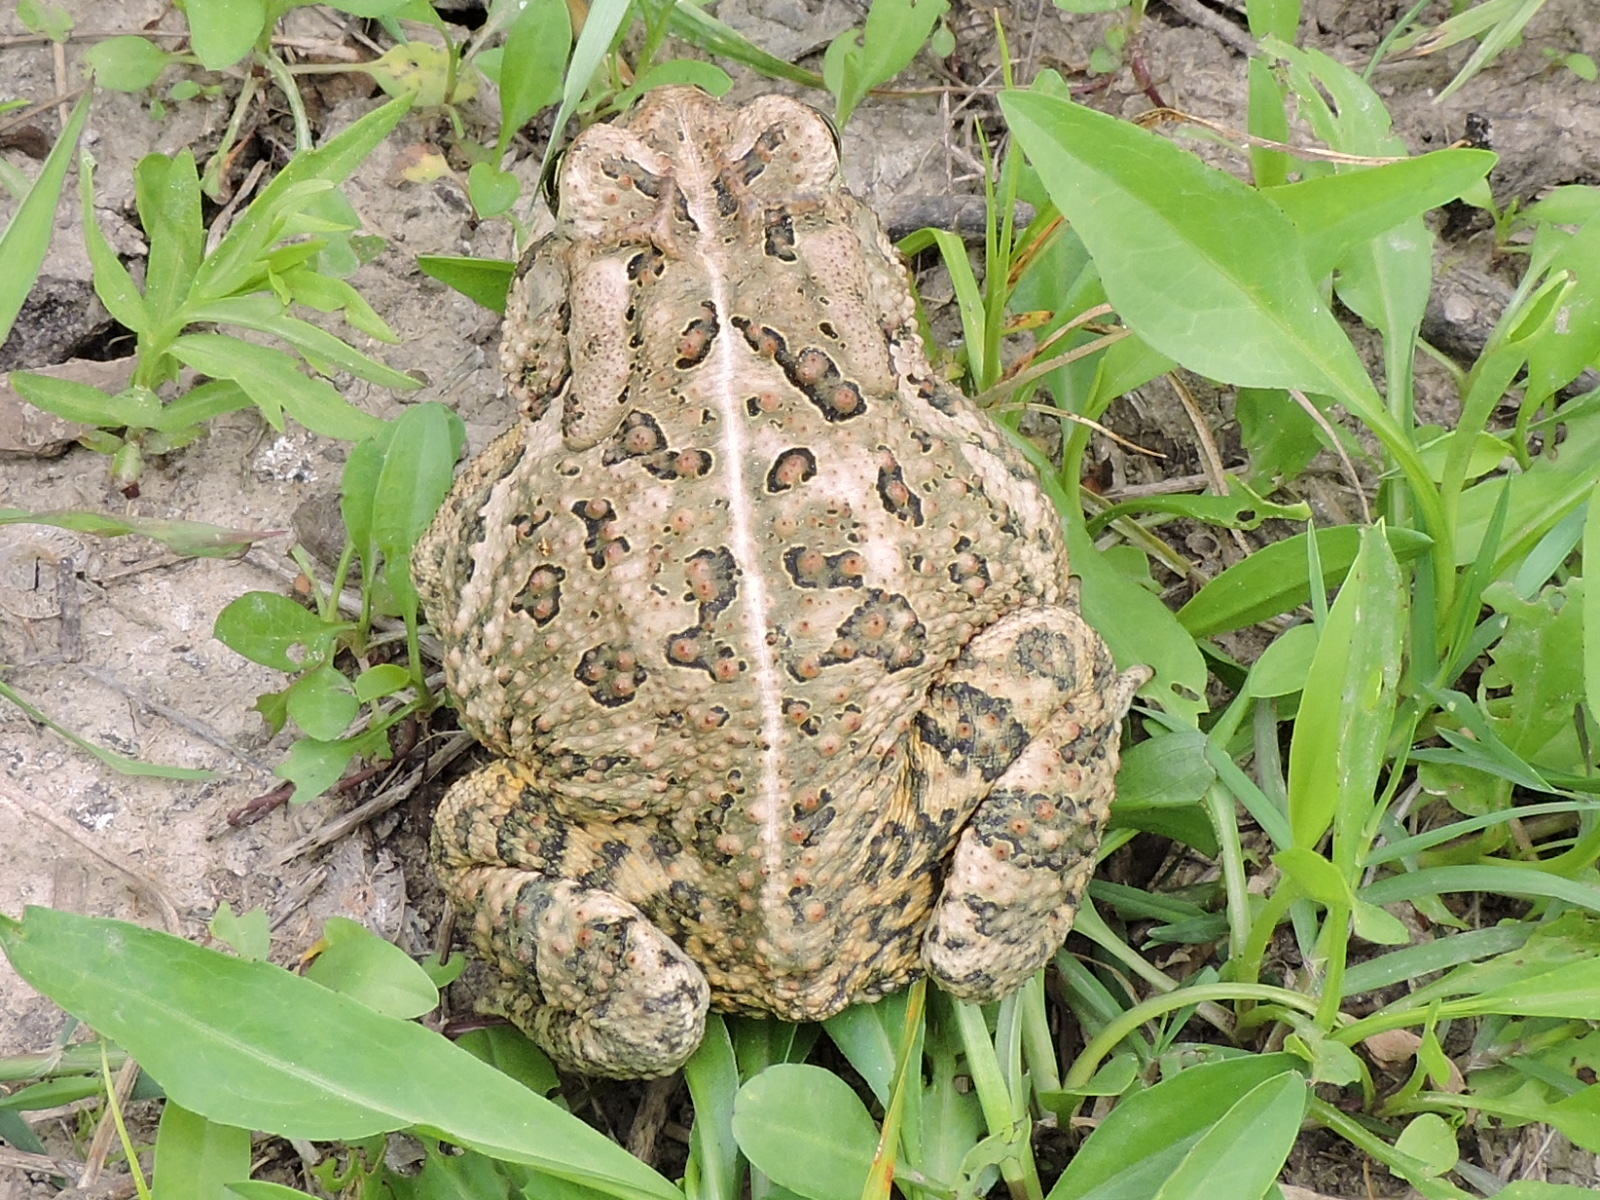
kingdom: Animalia
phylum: Chordata
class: Amphibia
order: Anura
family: Bufonidae
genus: Anaxyrus
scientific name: Anaxyrus woodhousii
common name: Woodhouse's toad
